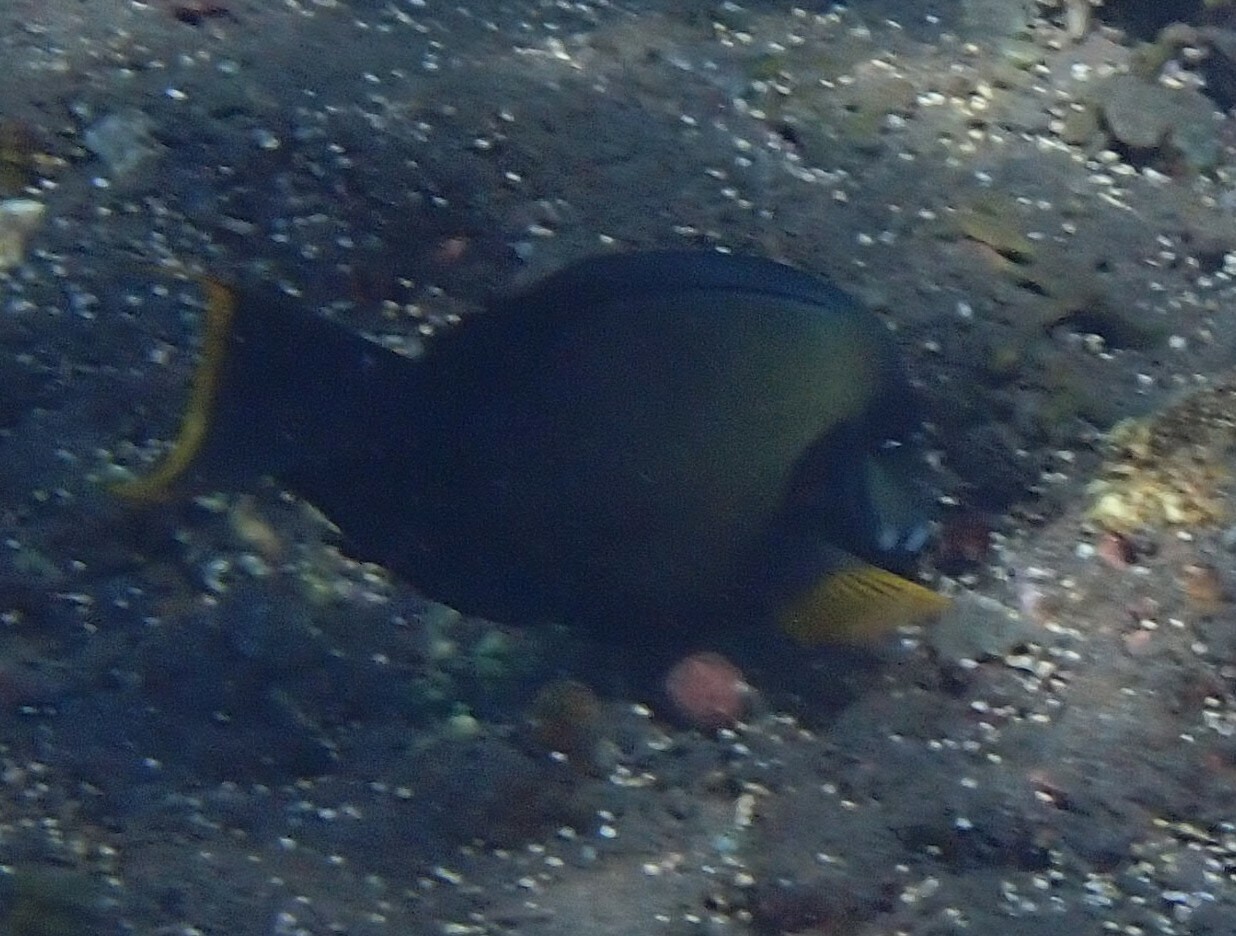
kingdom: Animalia
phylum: Chordata
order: Perciformes
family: Acanthuridae
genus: Acanthurus
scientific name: Acanthurus pyroferus
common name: Chocolate surgeonfish
